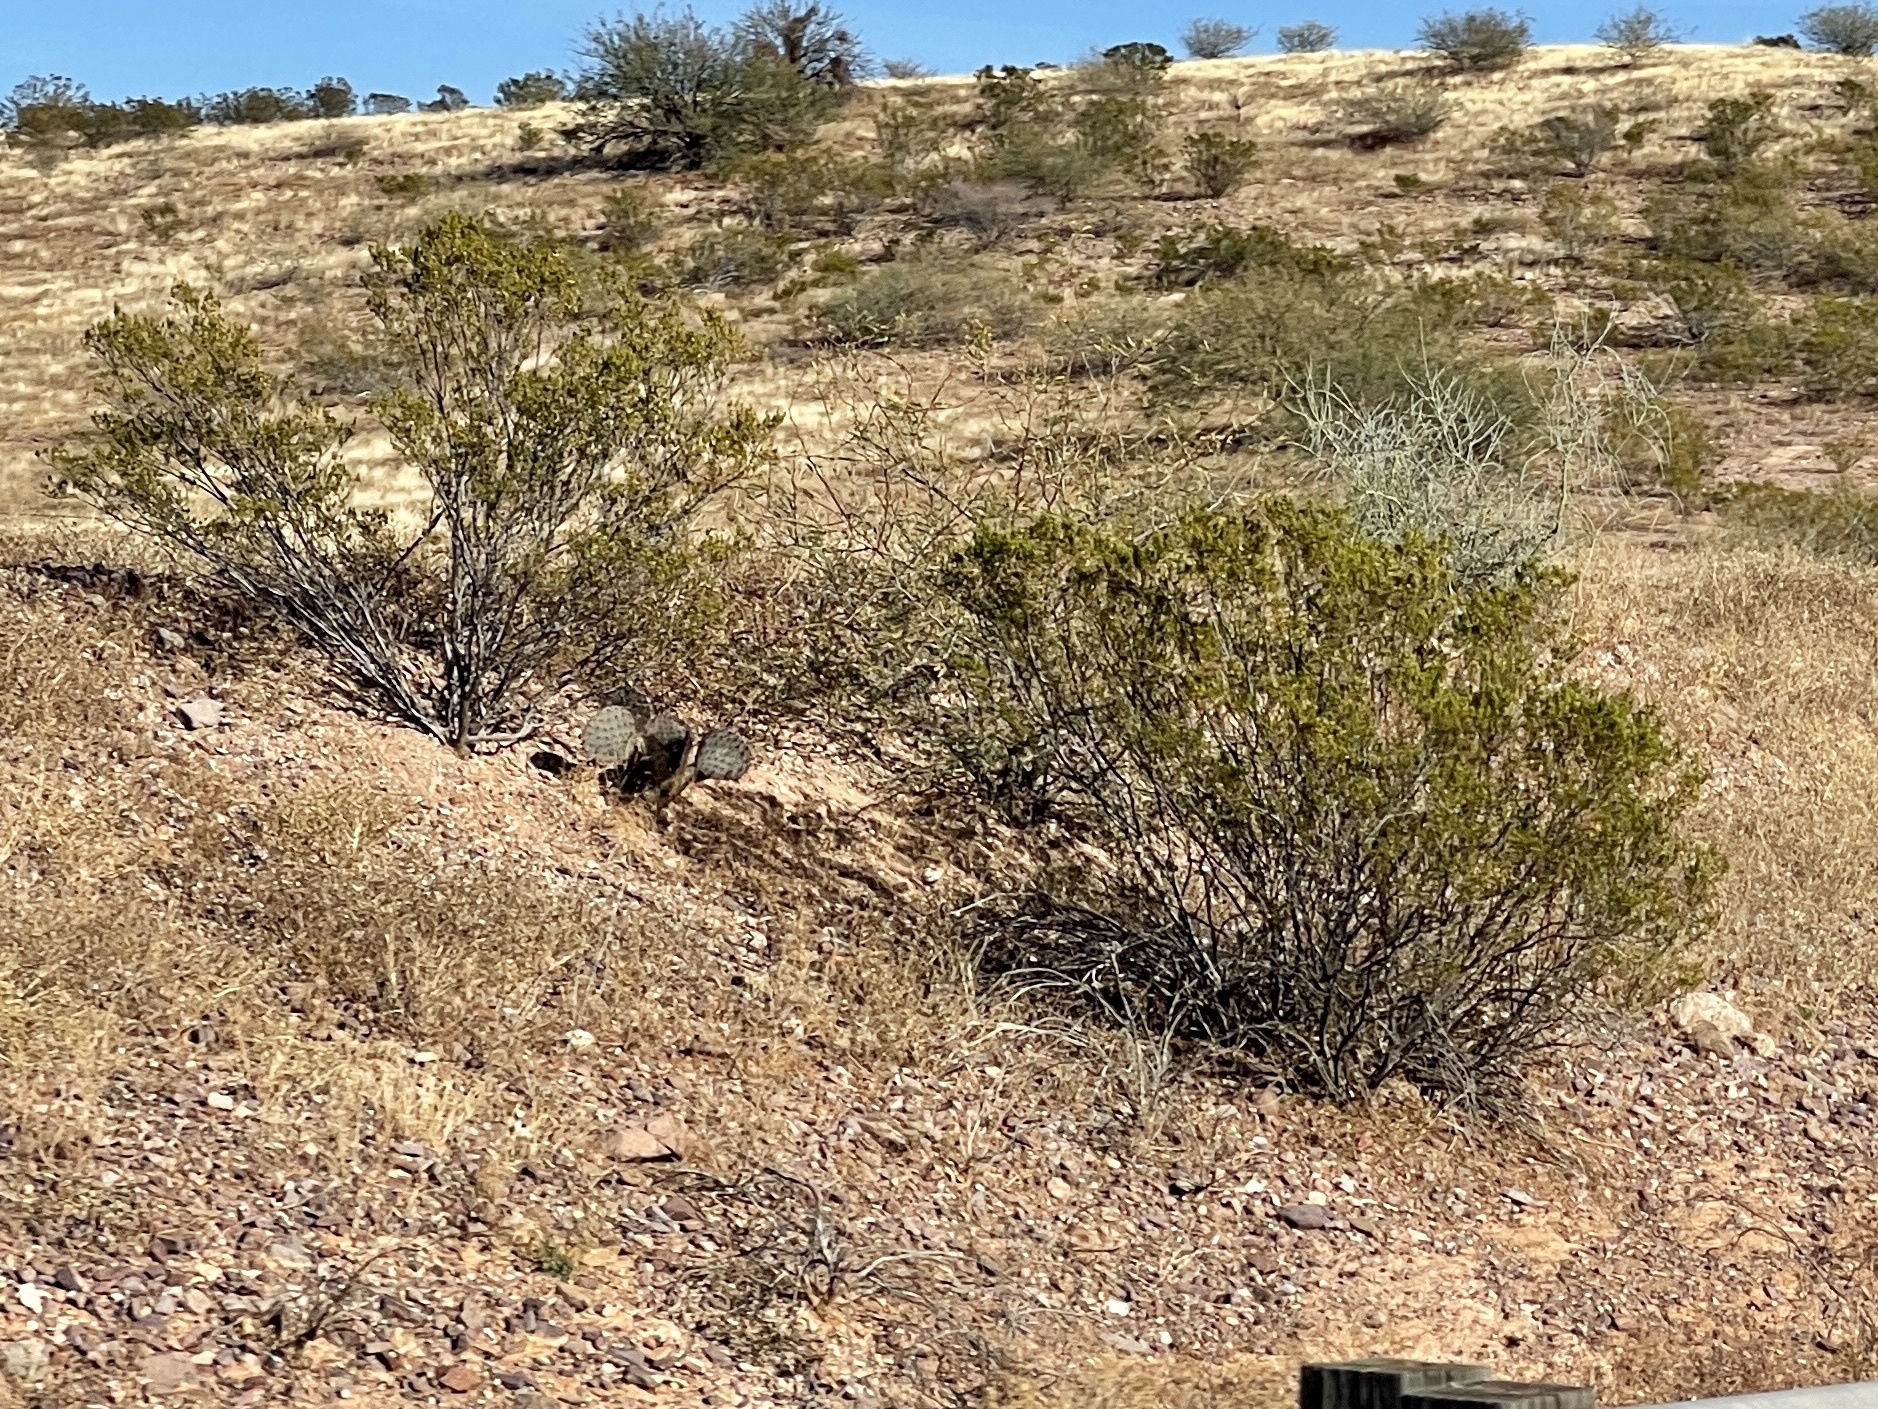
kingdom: Plantae
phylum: Tracheophyta
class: Magnoliopsida
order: Zygophyllales
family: Zygophyllaceae
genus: Larrea
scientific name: Larrea tridentata
